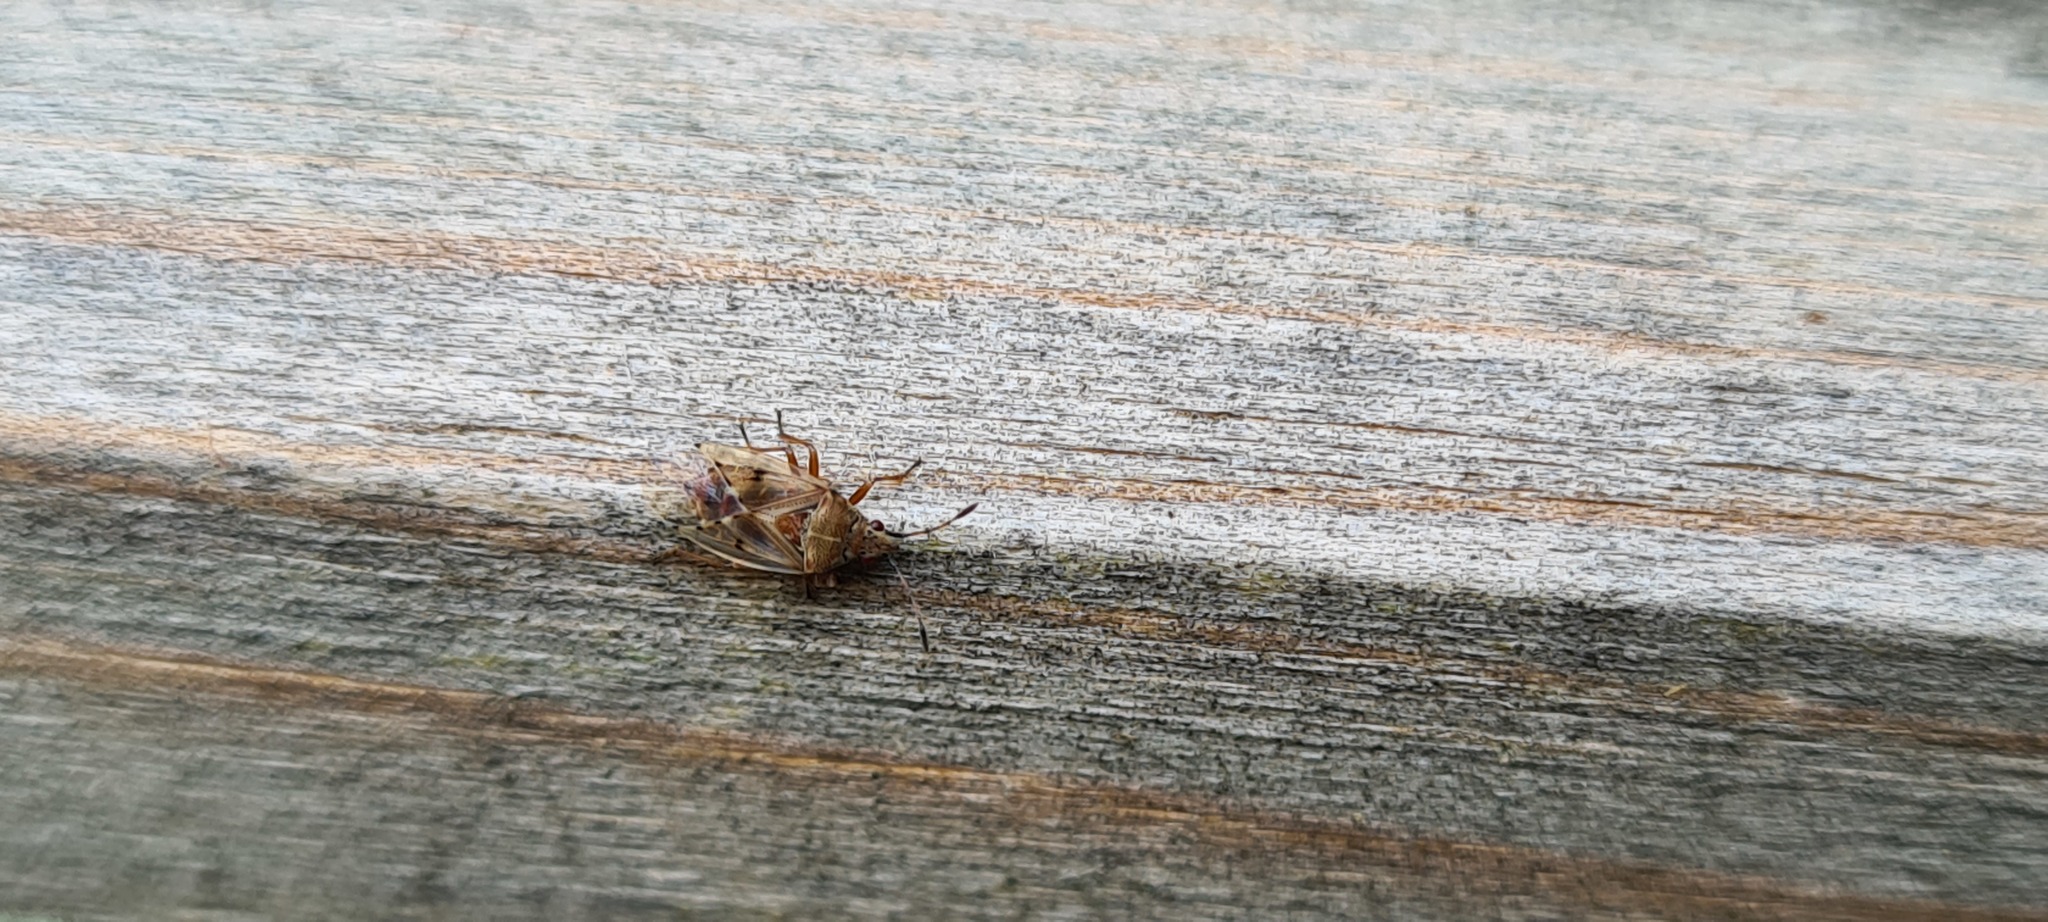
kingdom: Animalia
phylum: Arthropoda
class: Insecta
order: Hemiptera
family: Lygaeidae
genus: Kleidocerys
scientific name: Kleidocerys resedae
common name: Birch catkin bug
